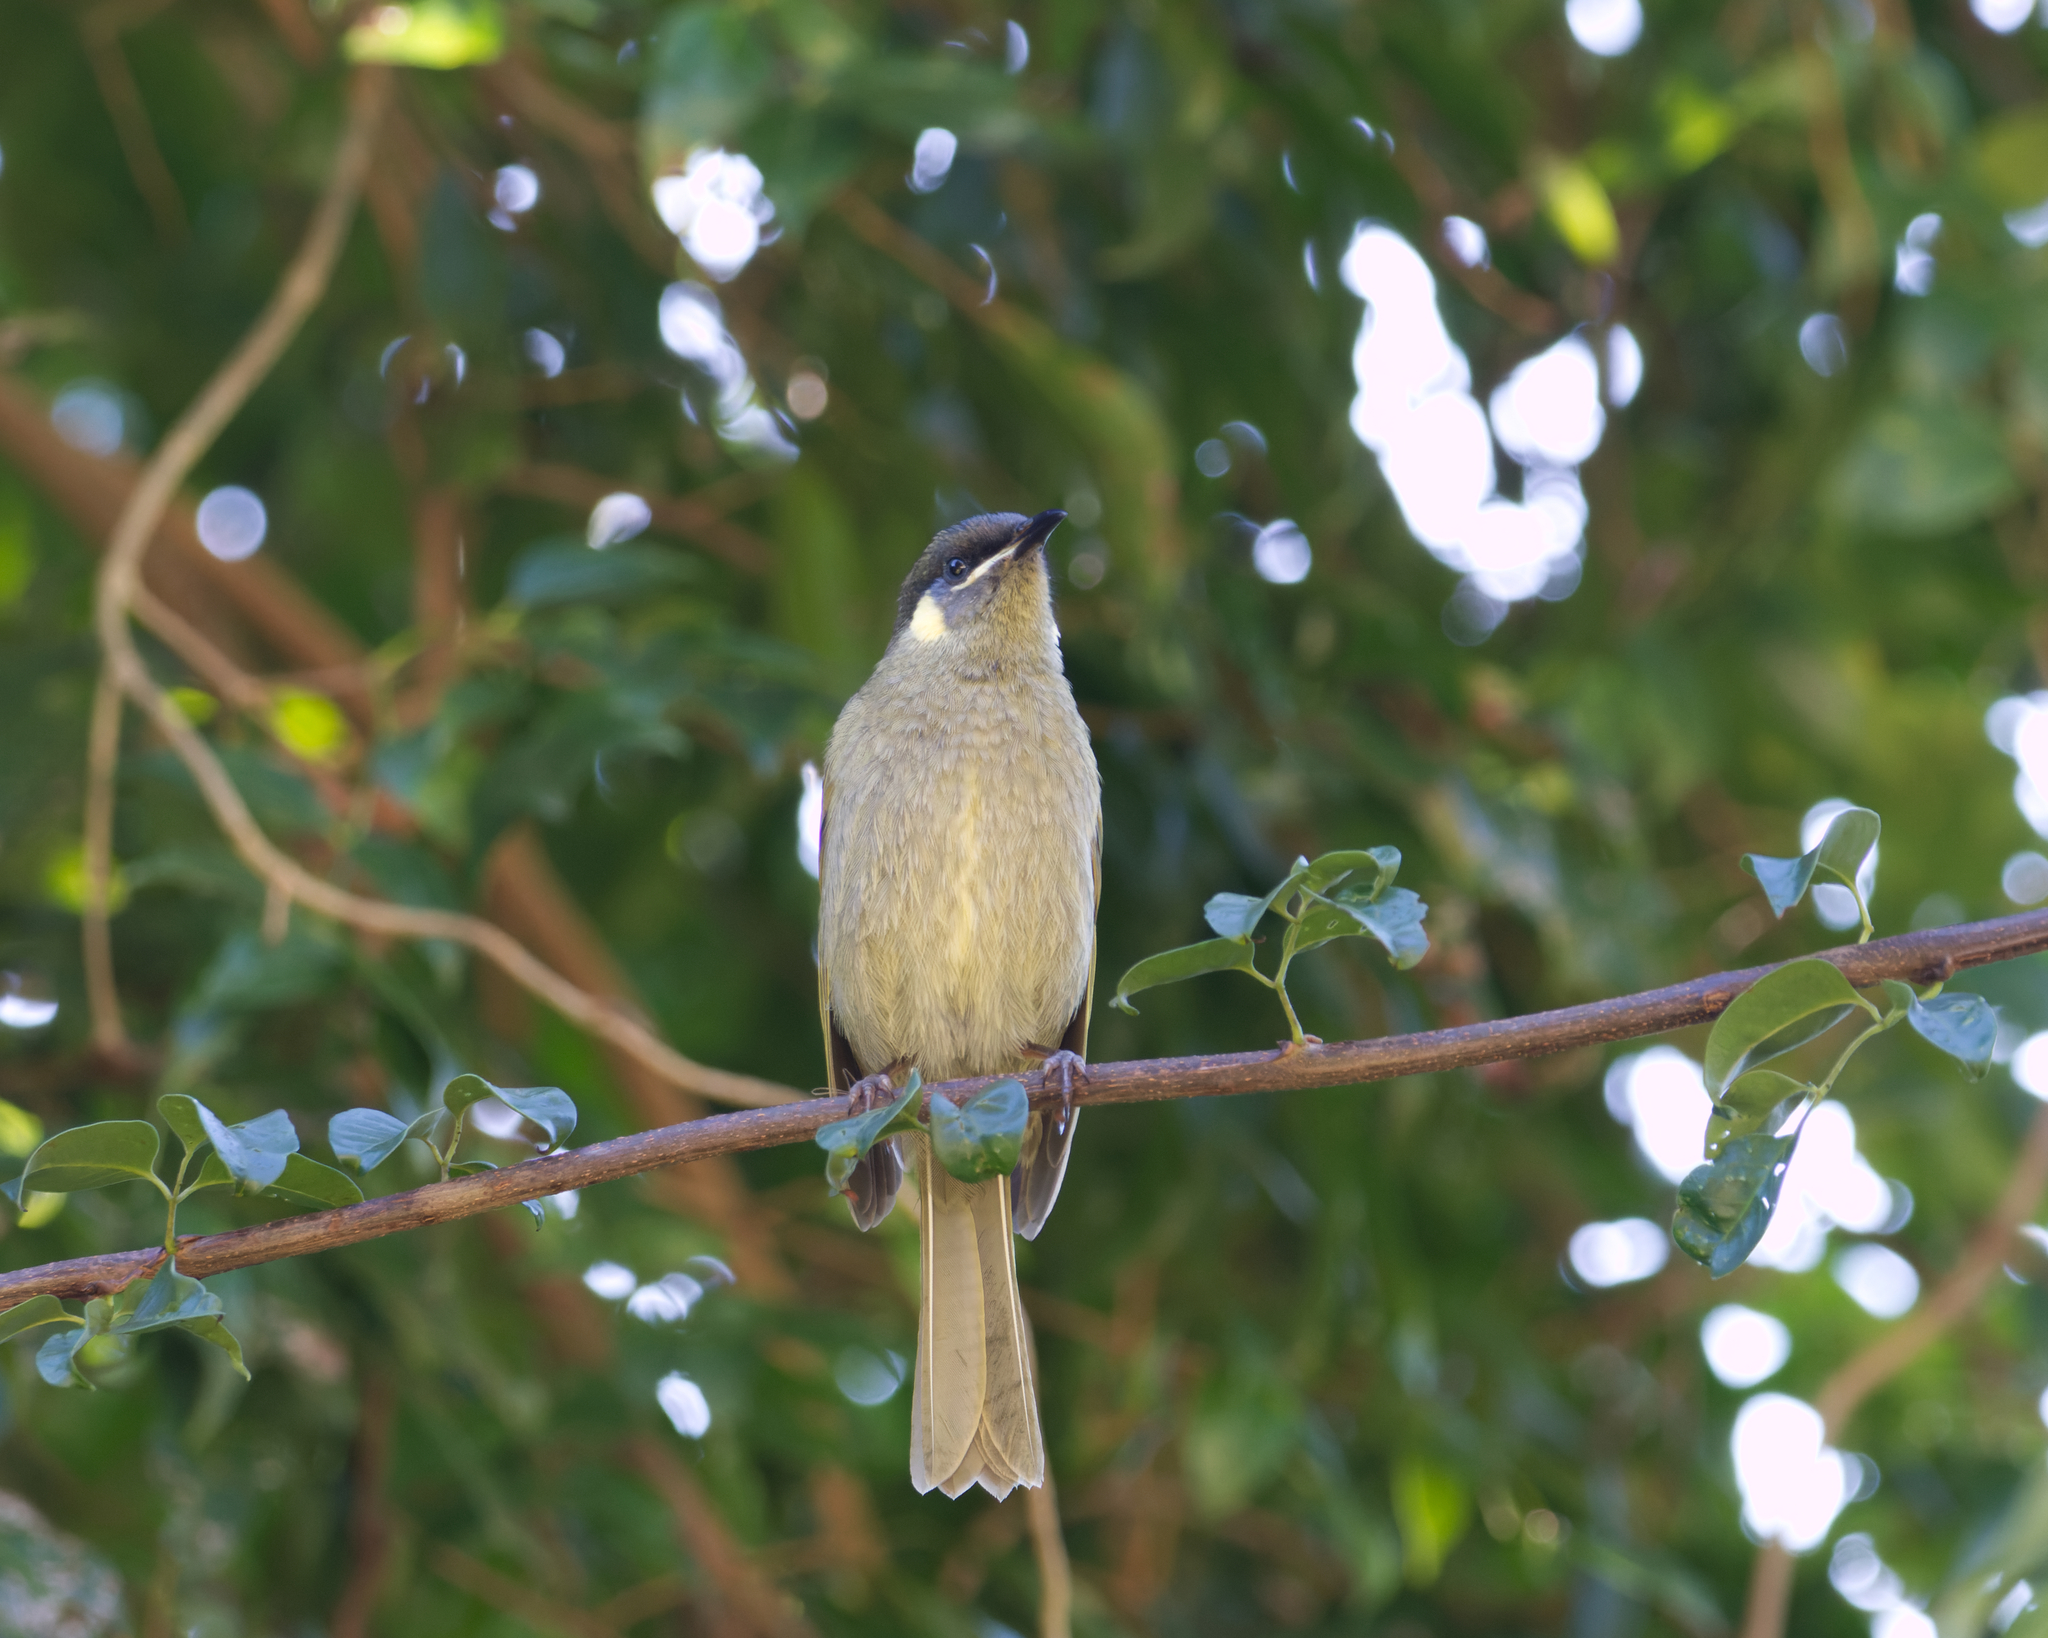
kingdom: Animalia
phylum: Chordata
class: Aves
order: Passeriformes
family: Meliphagidae
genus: Meliphaga
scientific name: Meliphaga lewinii
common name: Lewin's honeyeater
